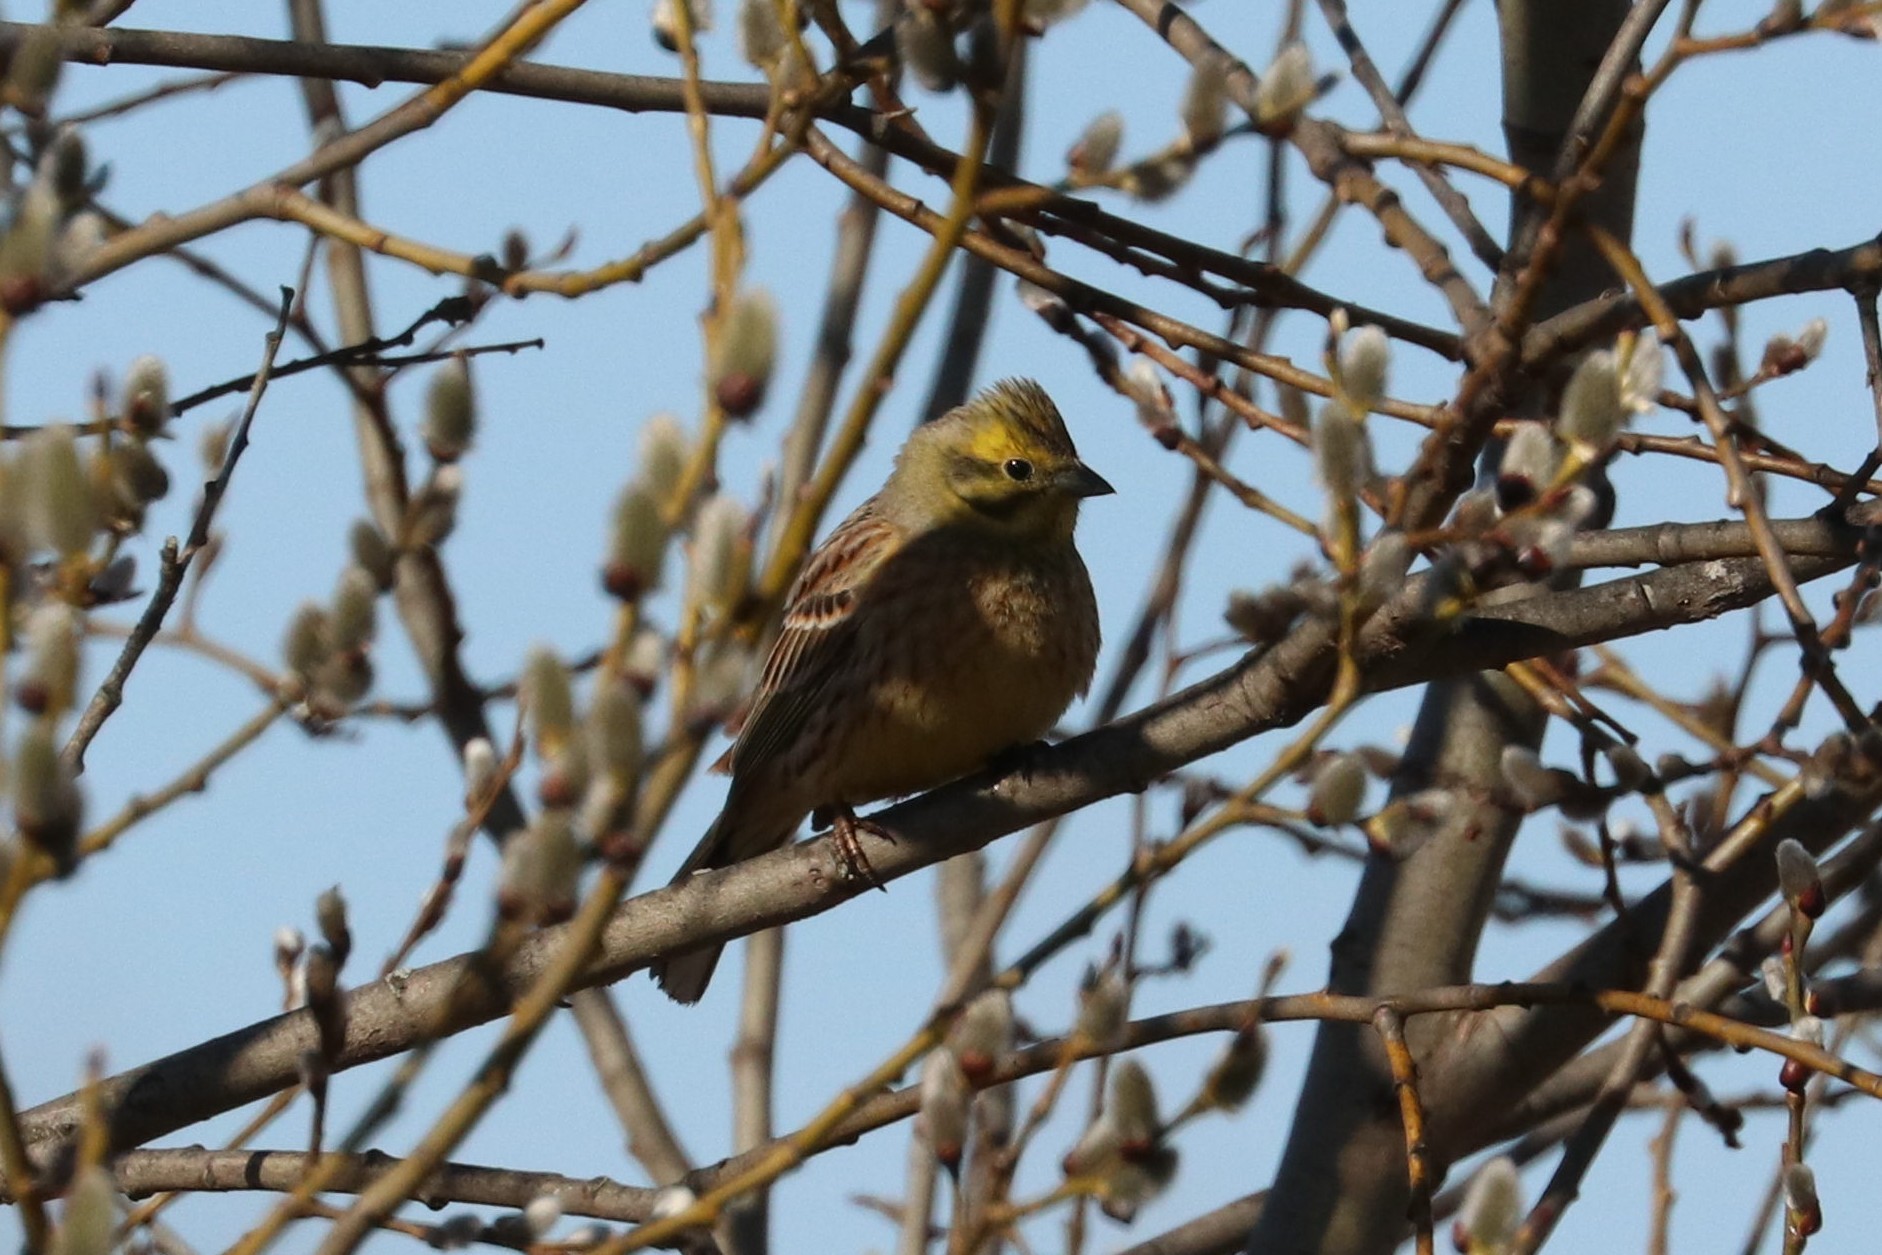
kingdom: Animalia
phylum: Chordata
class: Aves
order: Passeriformes
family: Emberizidae
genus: Emberiza
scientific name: Emberiza citrinella
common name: Yellowhammer
